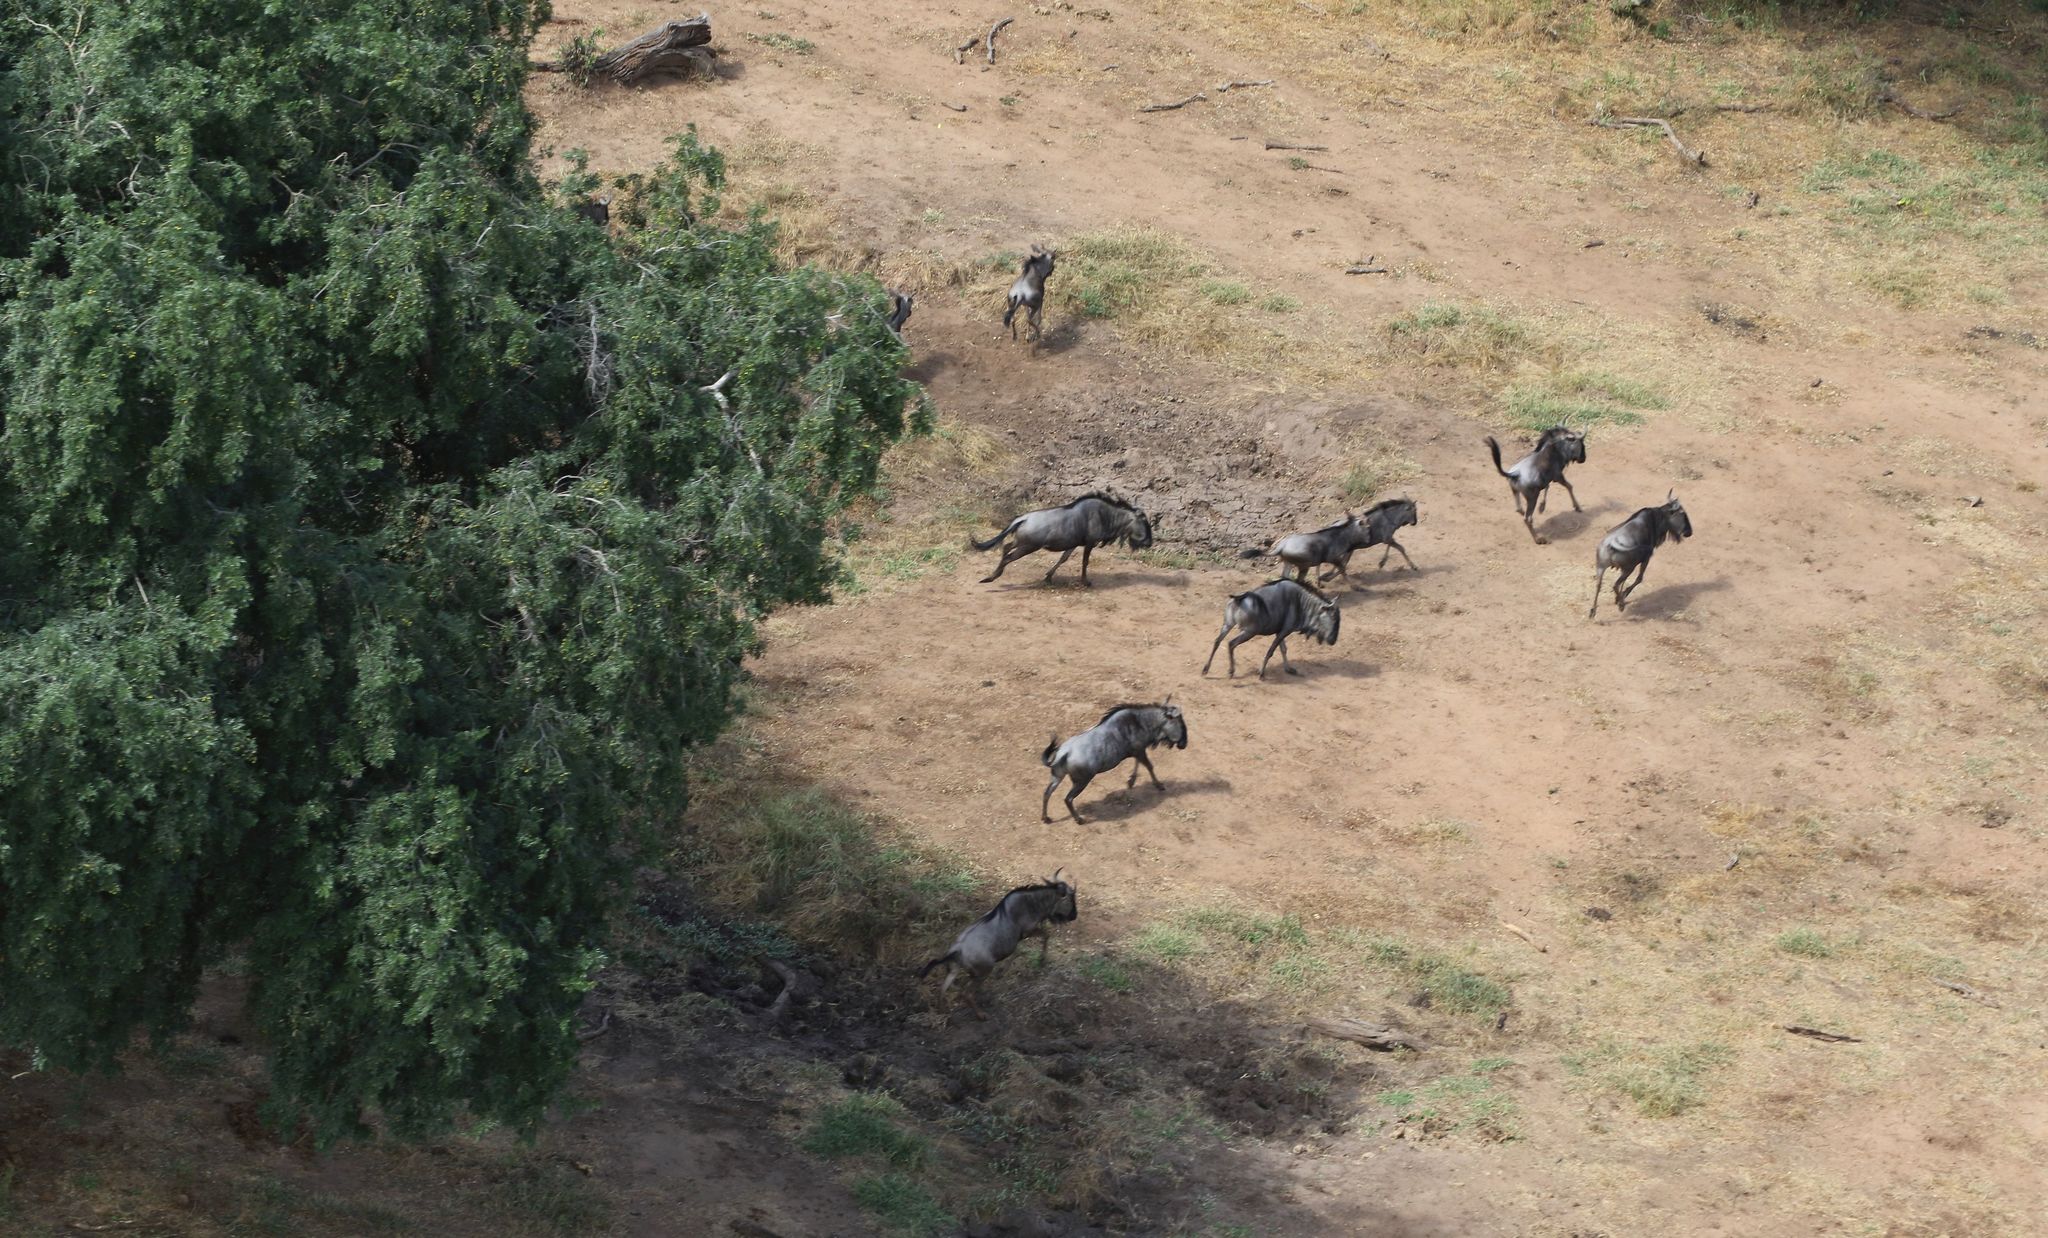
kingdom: Animalia
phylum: Chordata
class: Mammalia
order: Artiodactyla
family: Bovidae
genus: Connochaetes
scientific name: Connochaetes taurinus
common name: Blue wildebeest
